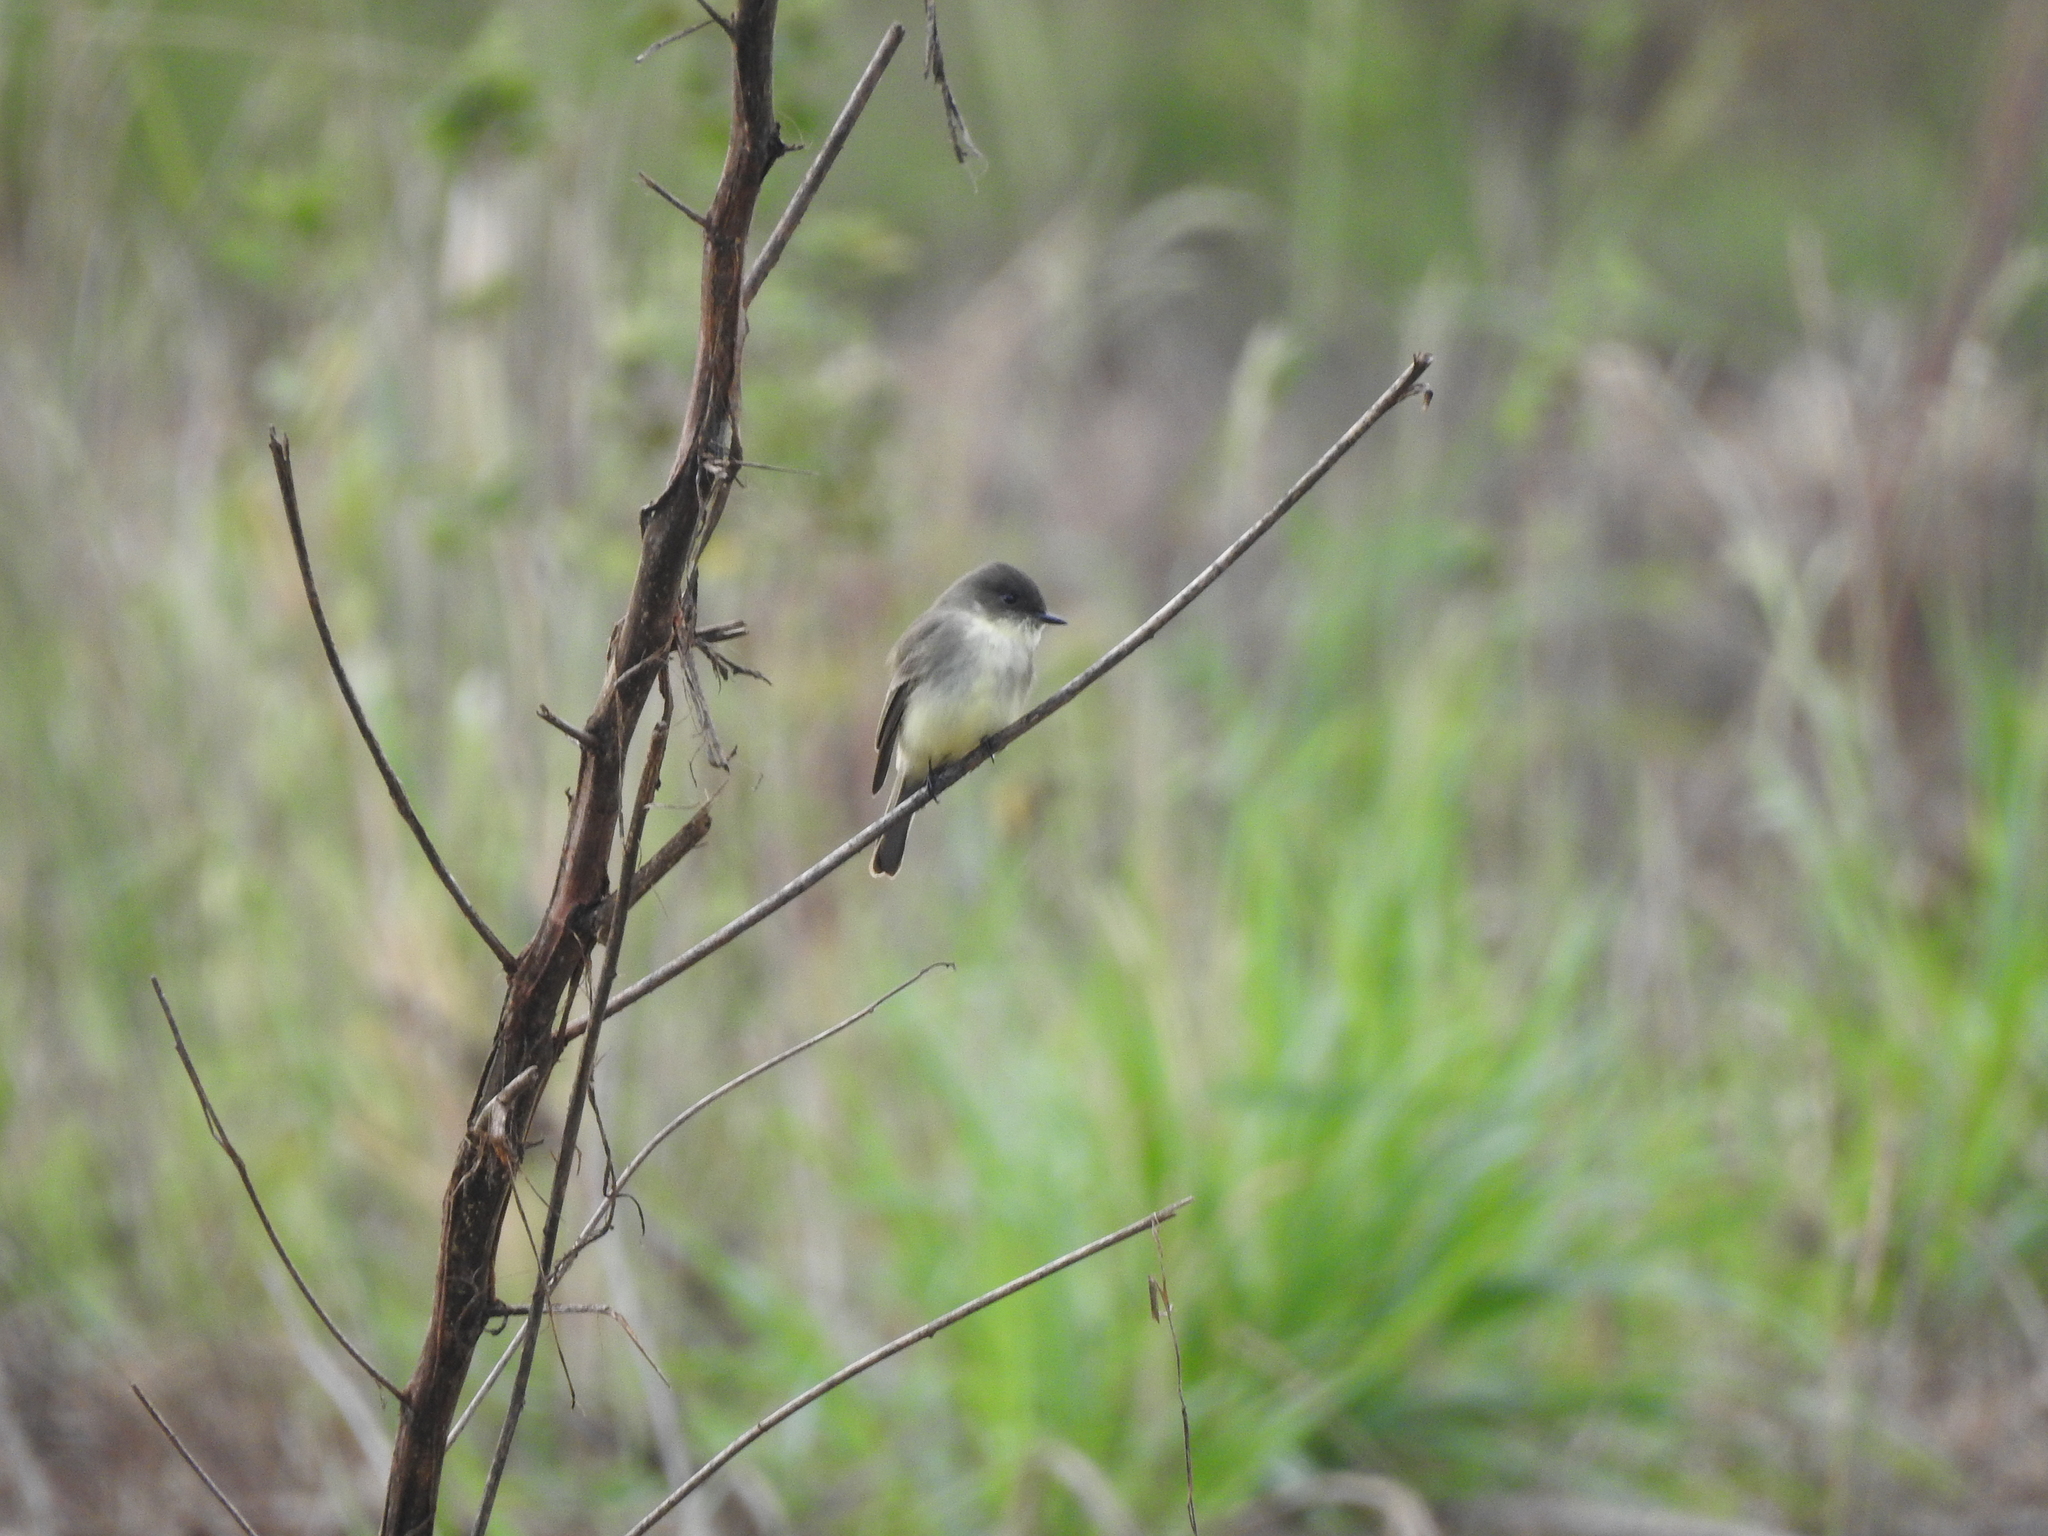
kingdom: Animalia
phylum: Chordata
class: Aves
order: Passeriformes
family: Tyrannidae
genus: Sayornis
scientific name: Sayornis phoebe
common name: Eastern phoebe
